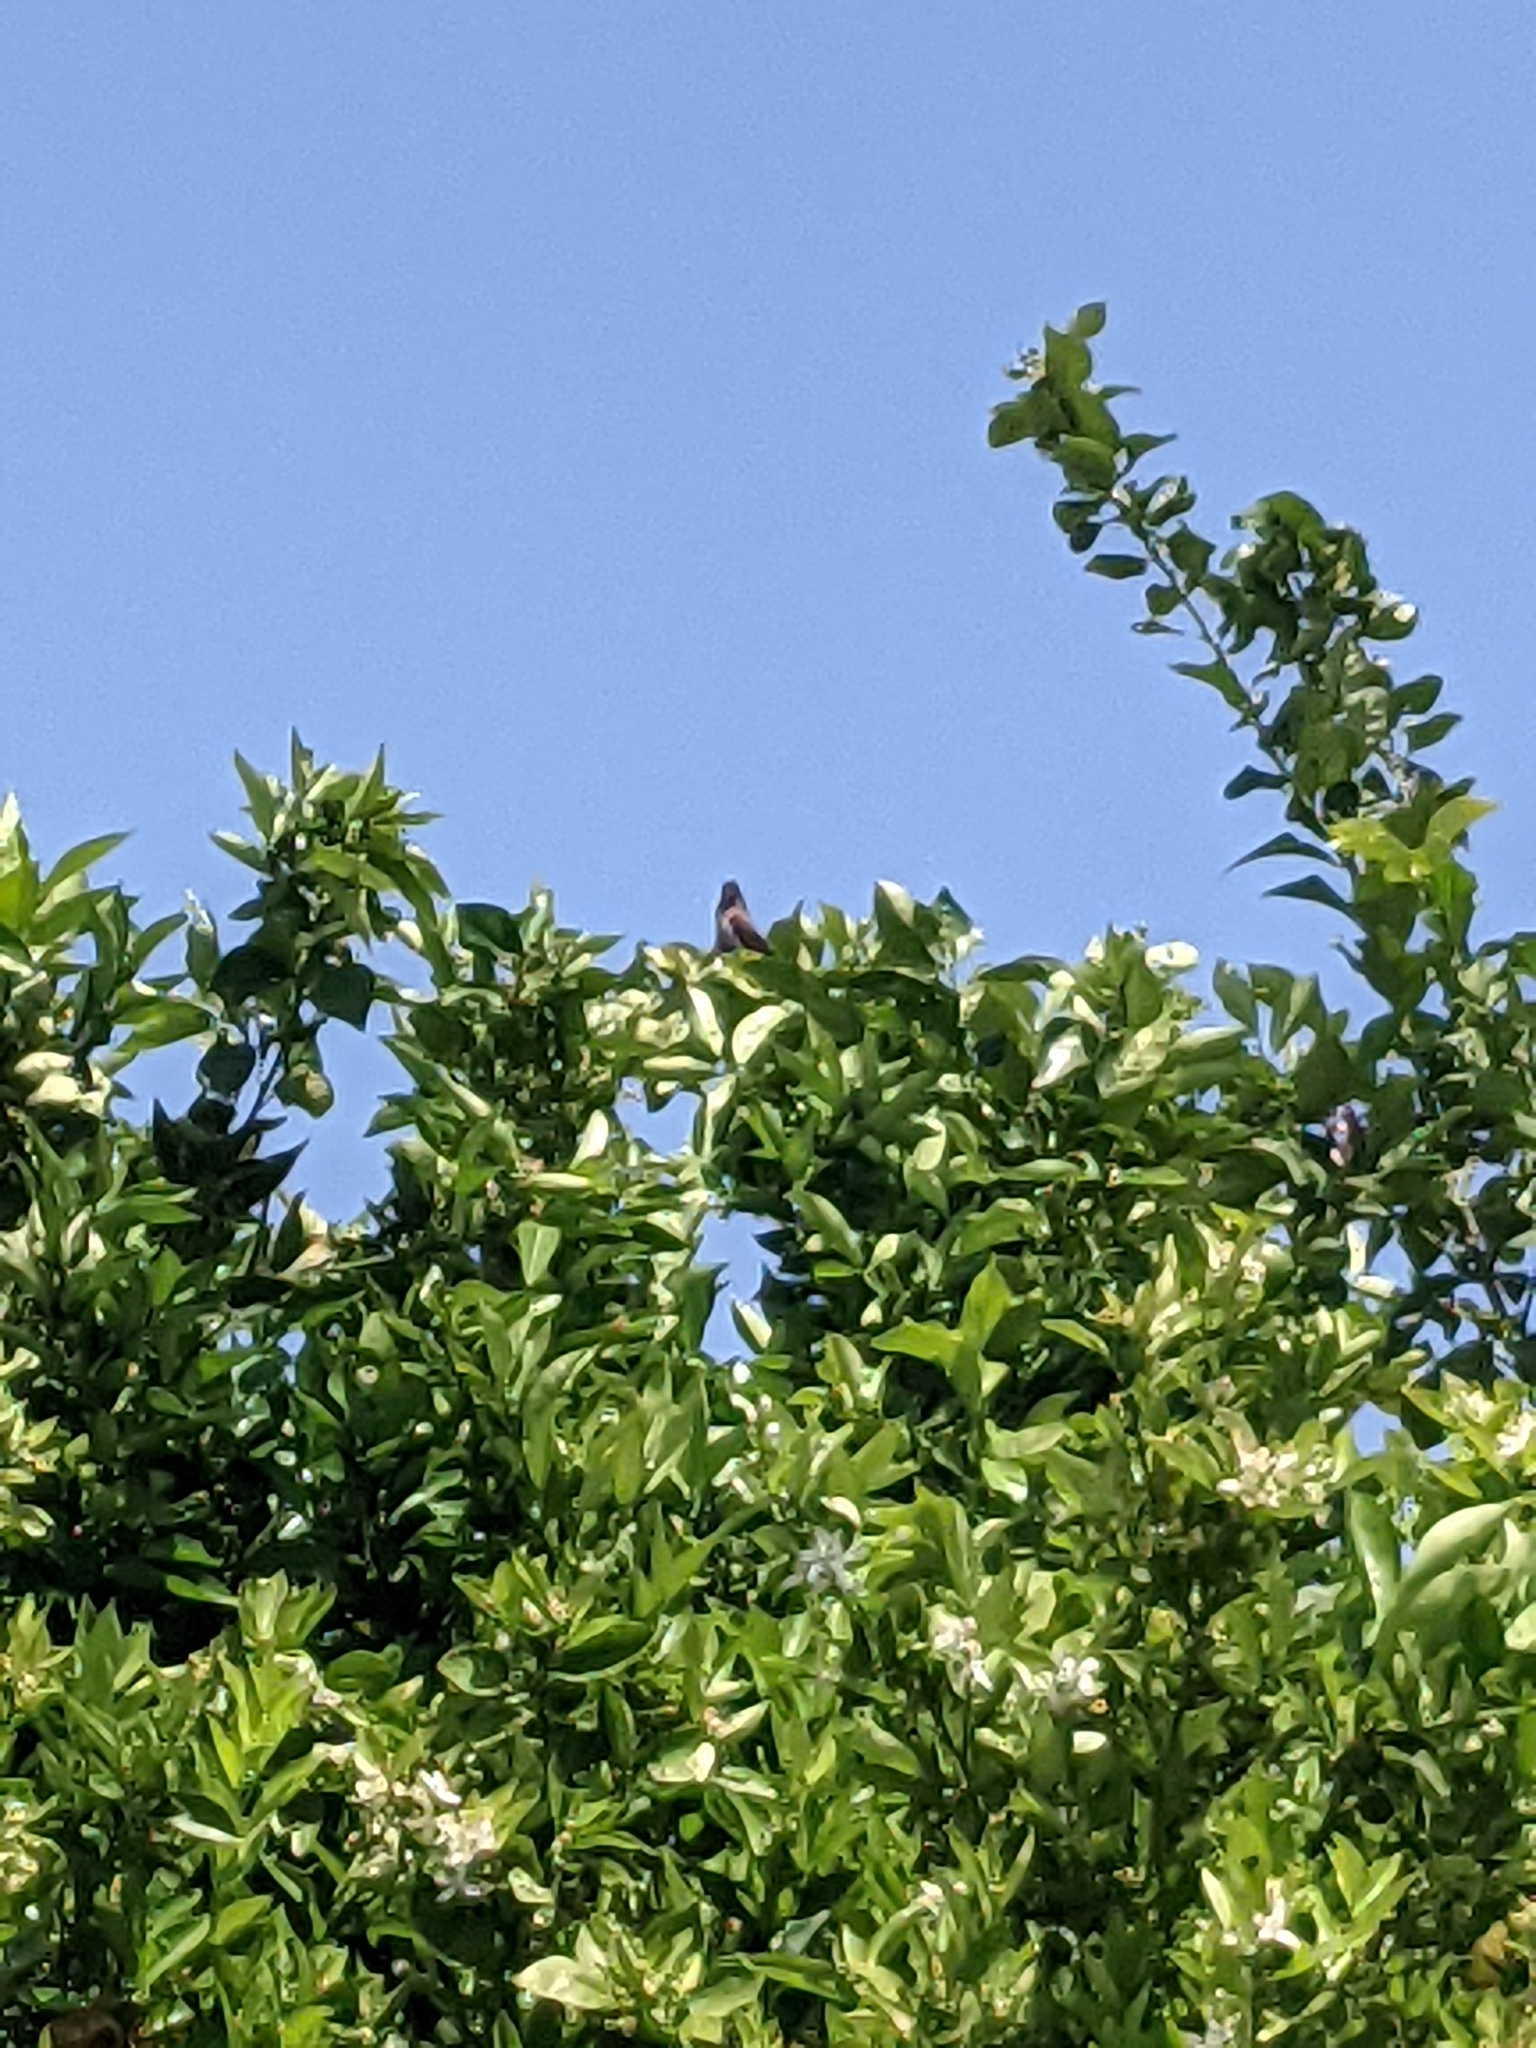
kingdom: Animalia
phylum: Chordata
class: Aves
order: Passeriformes
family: Pycnonotidae
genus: Pycnonotus
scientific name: Pycnonotus jocosus
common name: Red-whiskered bulbul
